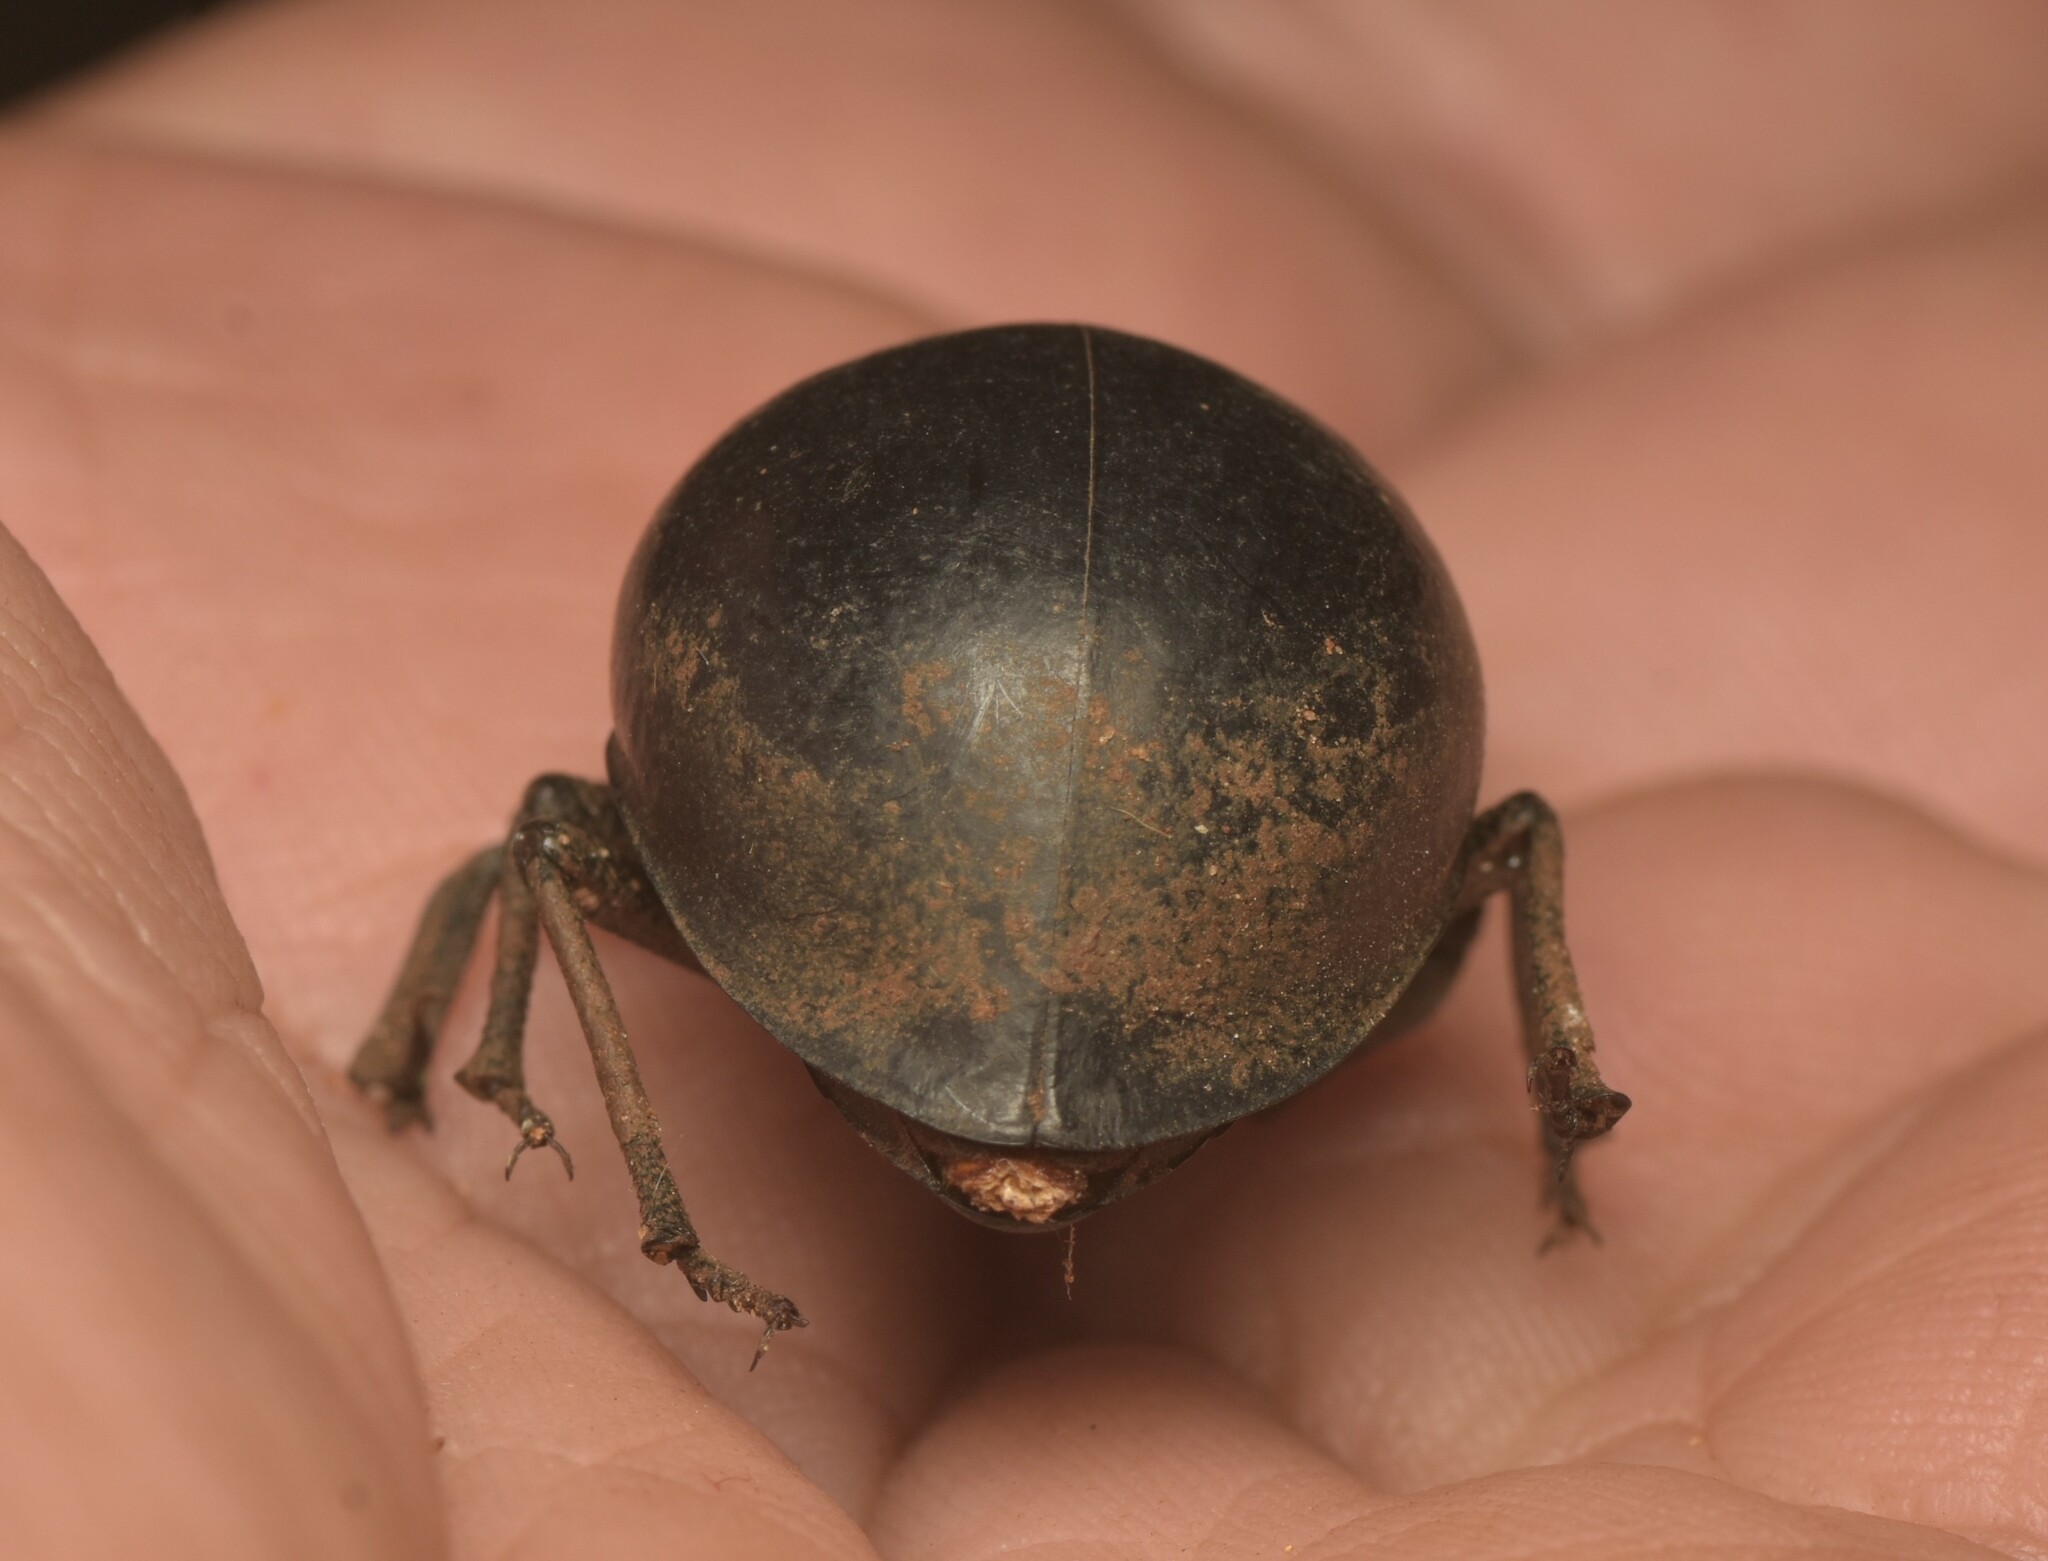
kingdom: Animalia
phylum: Arthropoda
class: Insecta
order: Coleoptera
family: Tenebrionidae
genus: Ocnodes
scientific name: Ocnodes virago
